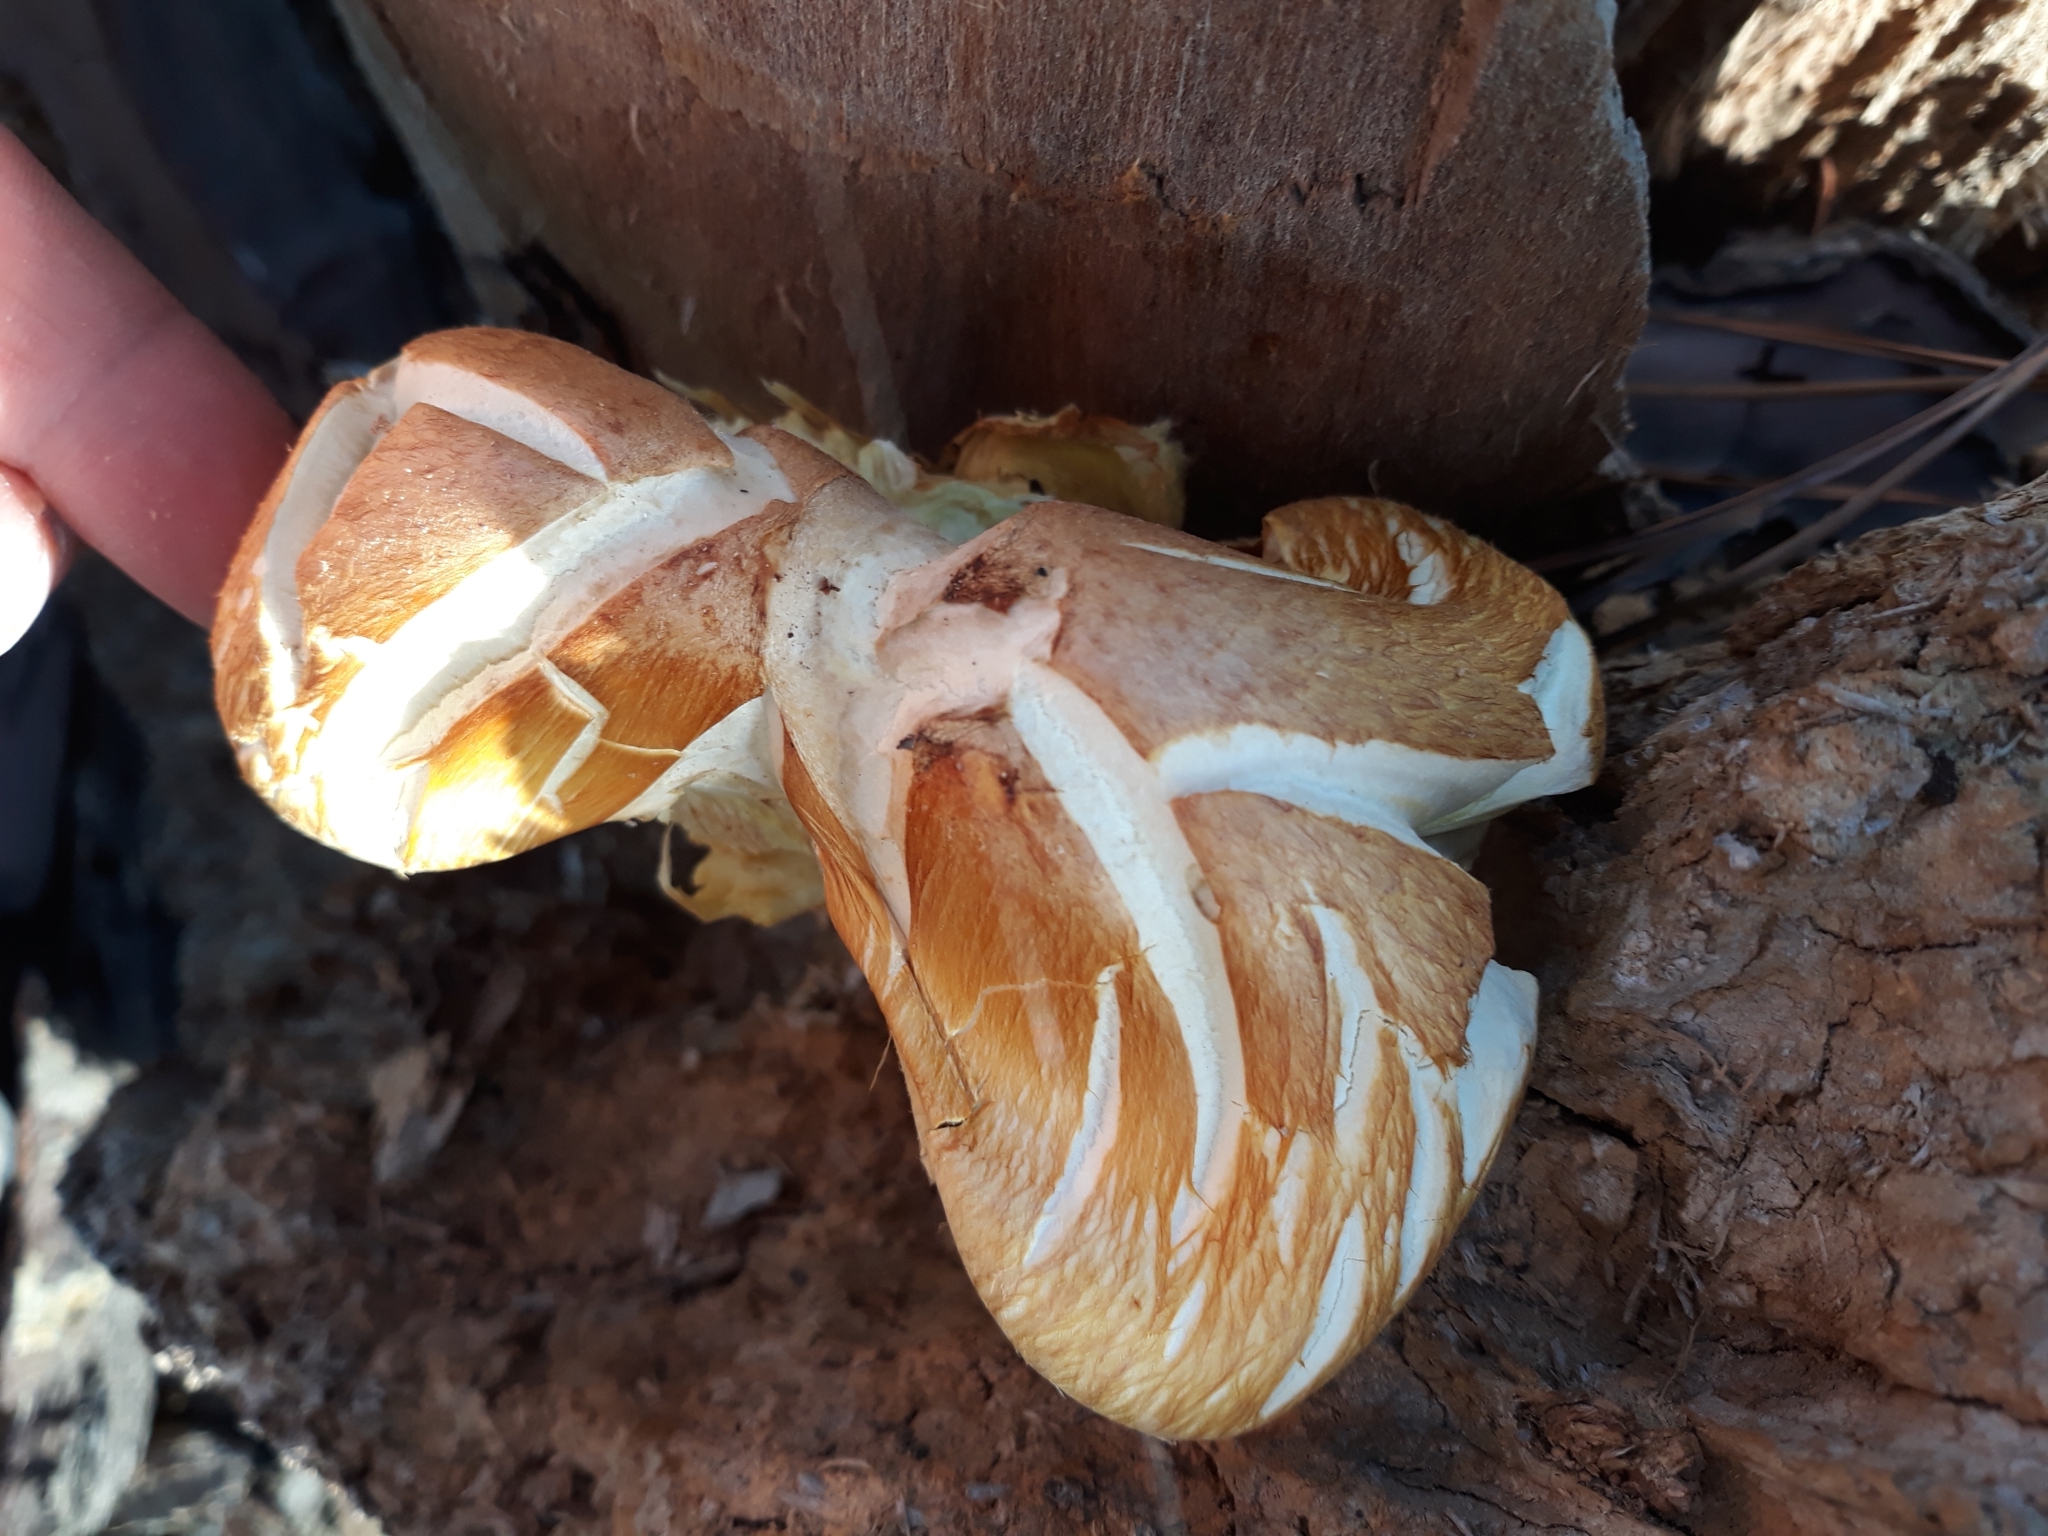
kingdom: Fungi
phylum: Basidiomycota
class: Agaricomycetes
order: Agaricales
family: Tubariaceae
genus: Cyclocybe
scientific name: Cyclocybe cylindracea
